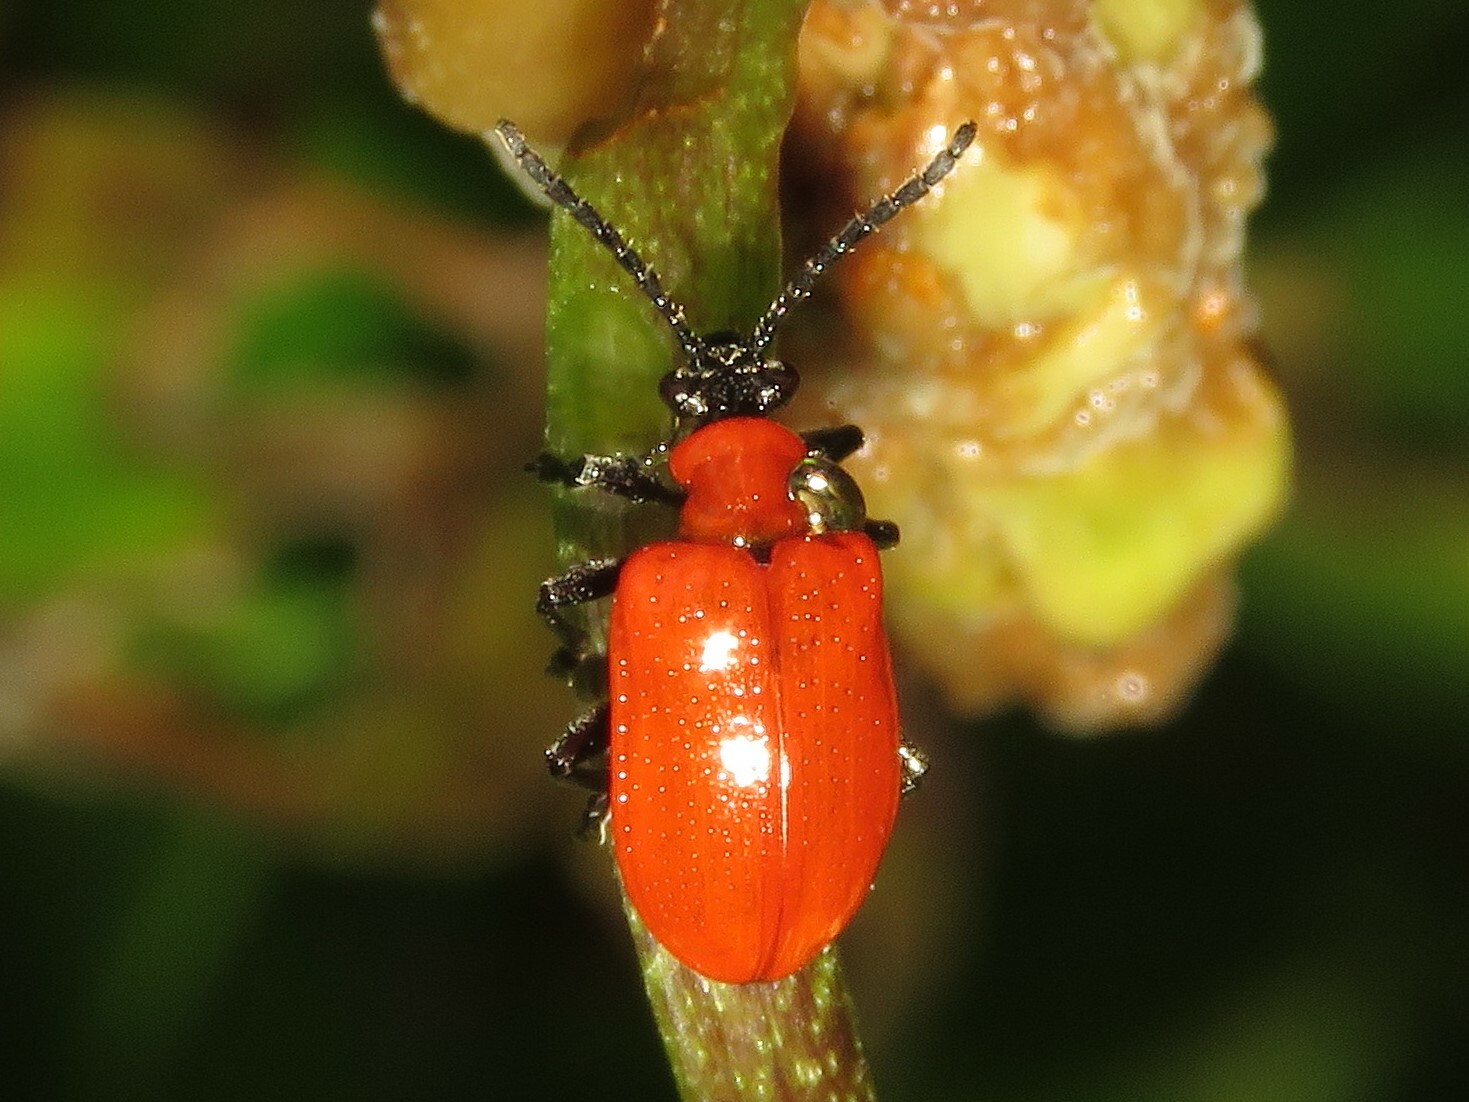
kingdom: Animalia
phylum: Arthropoda
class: Insecta
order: Coleoptera
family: Chrysomelidae
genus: Lilioceris
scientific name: Lilioceris lilii
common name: Lily beetle
